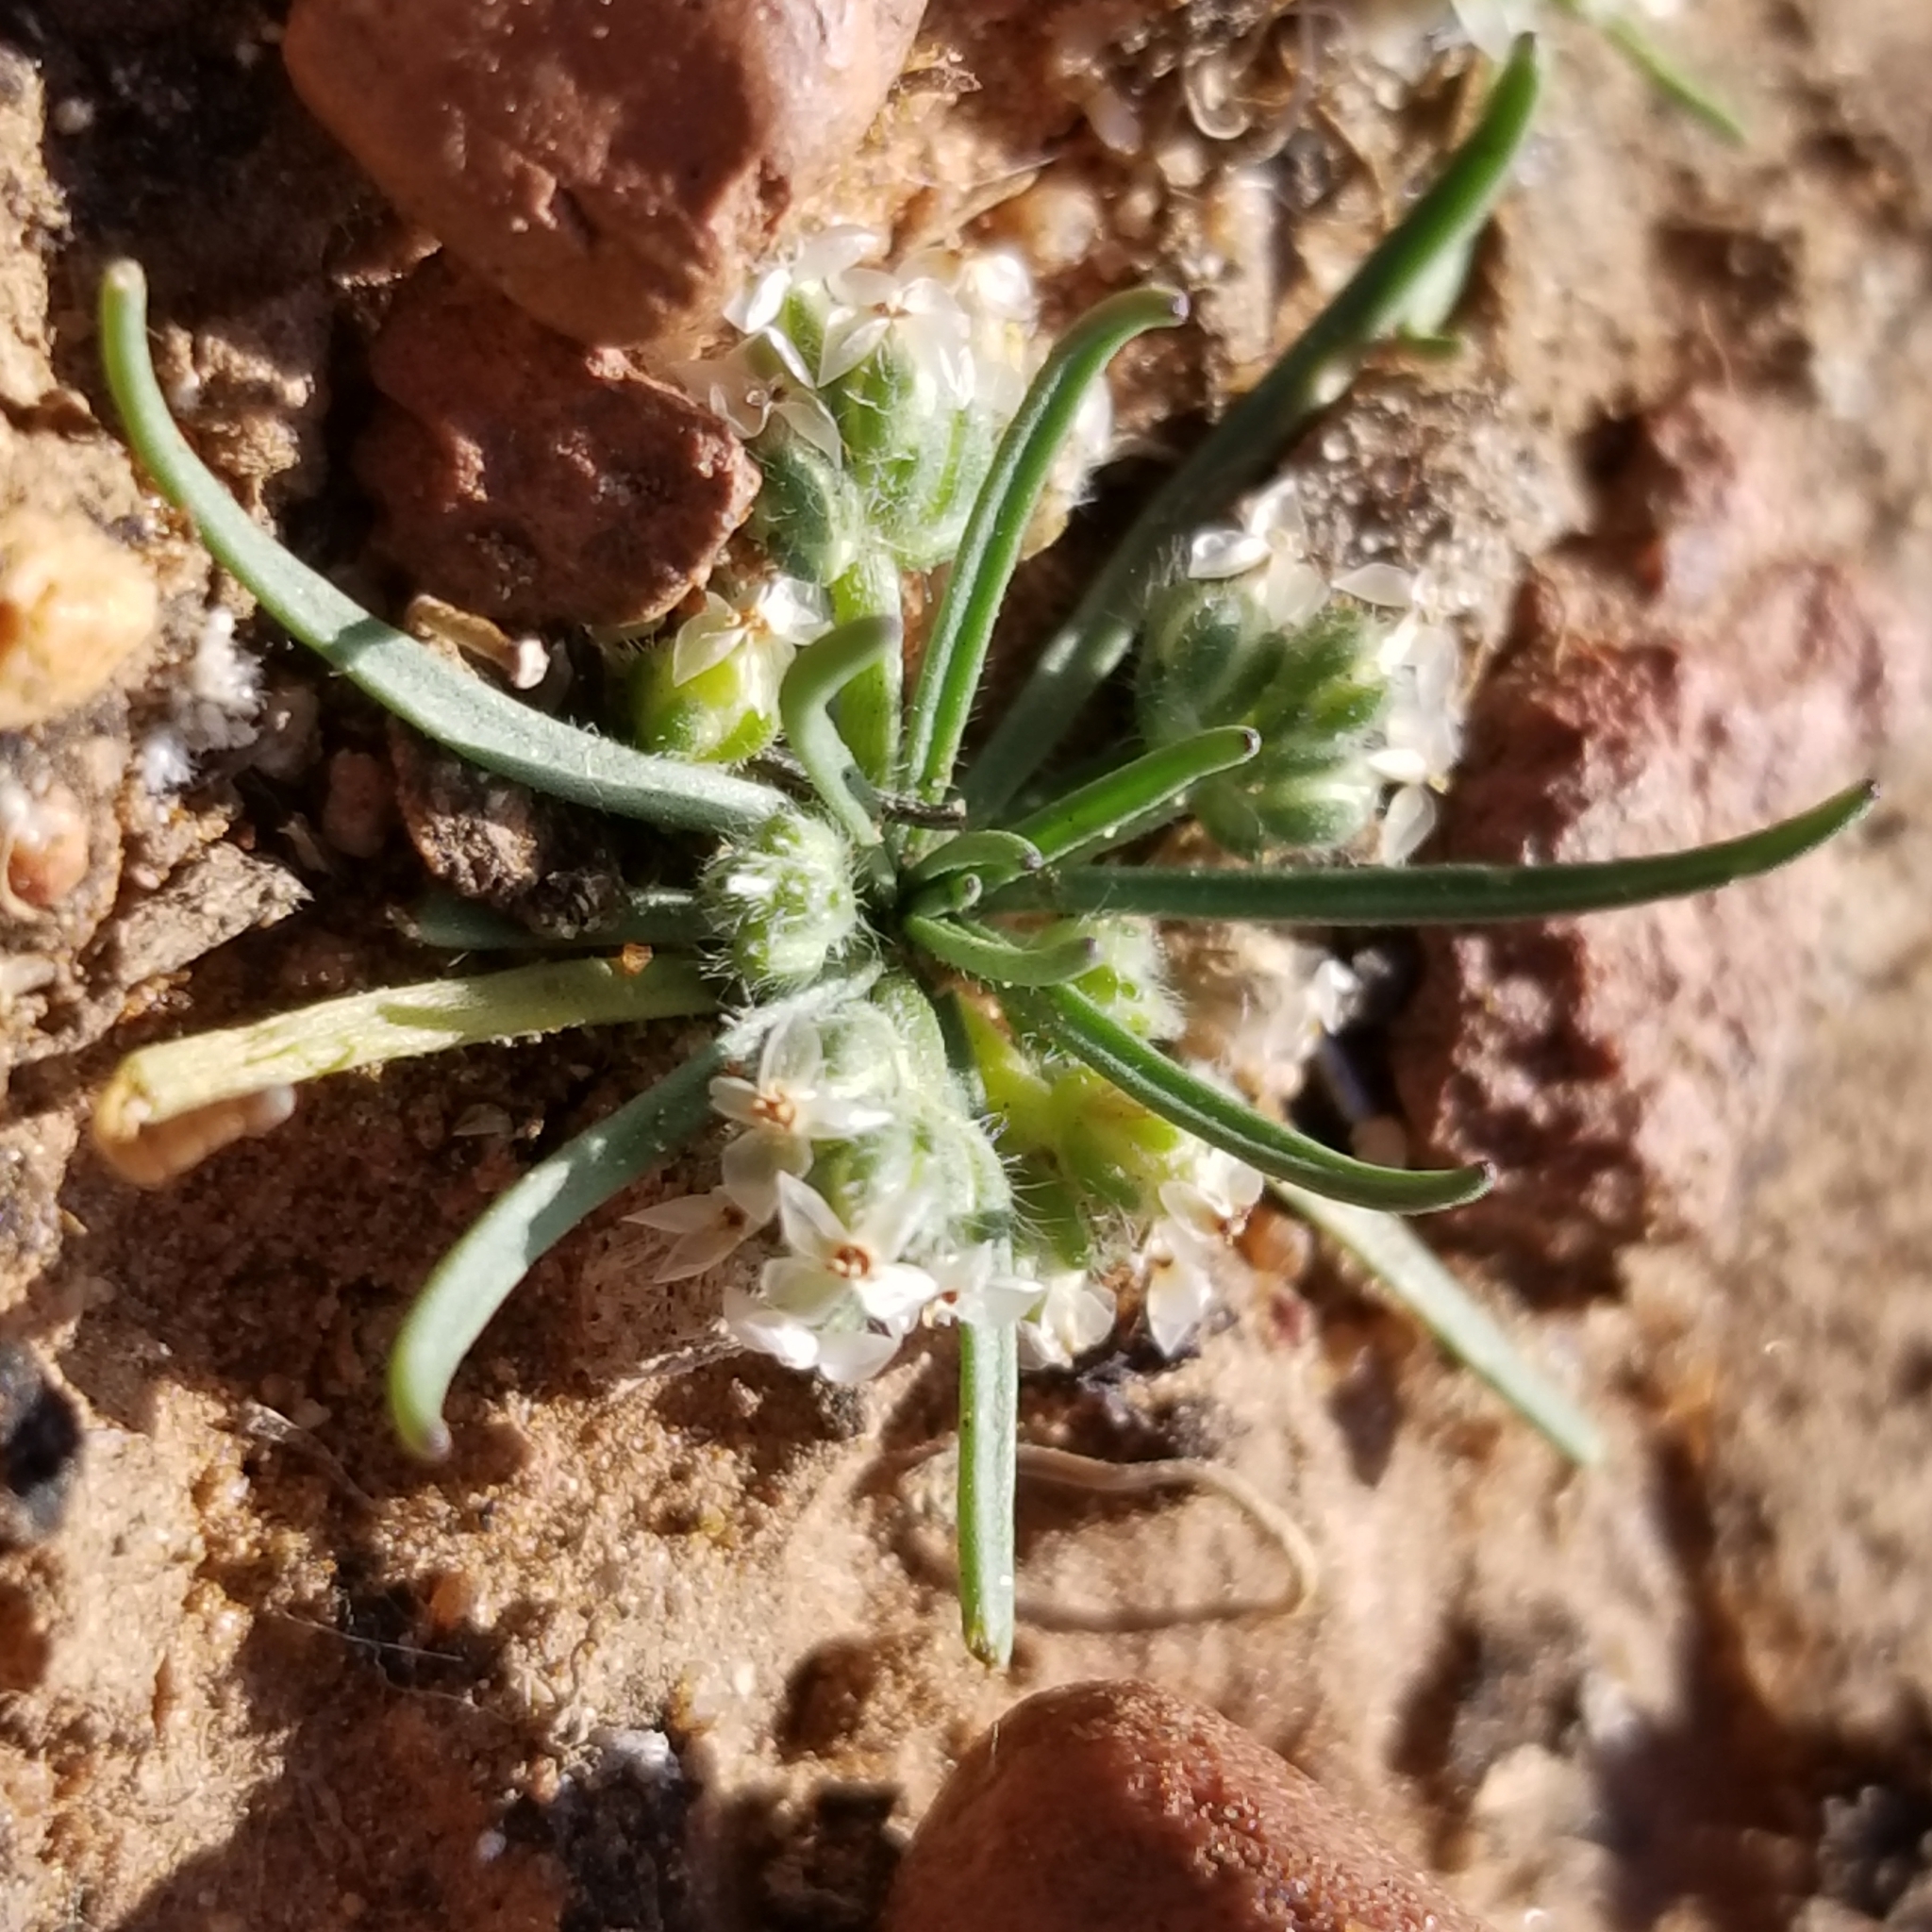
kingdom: Plantae
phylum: Tracheophyta
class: Magnoliopsida
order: Lamiales
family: Plantaginaceae
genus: Plantago
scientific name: Plantago erecta
